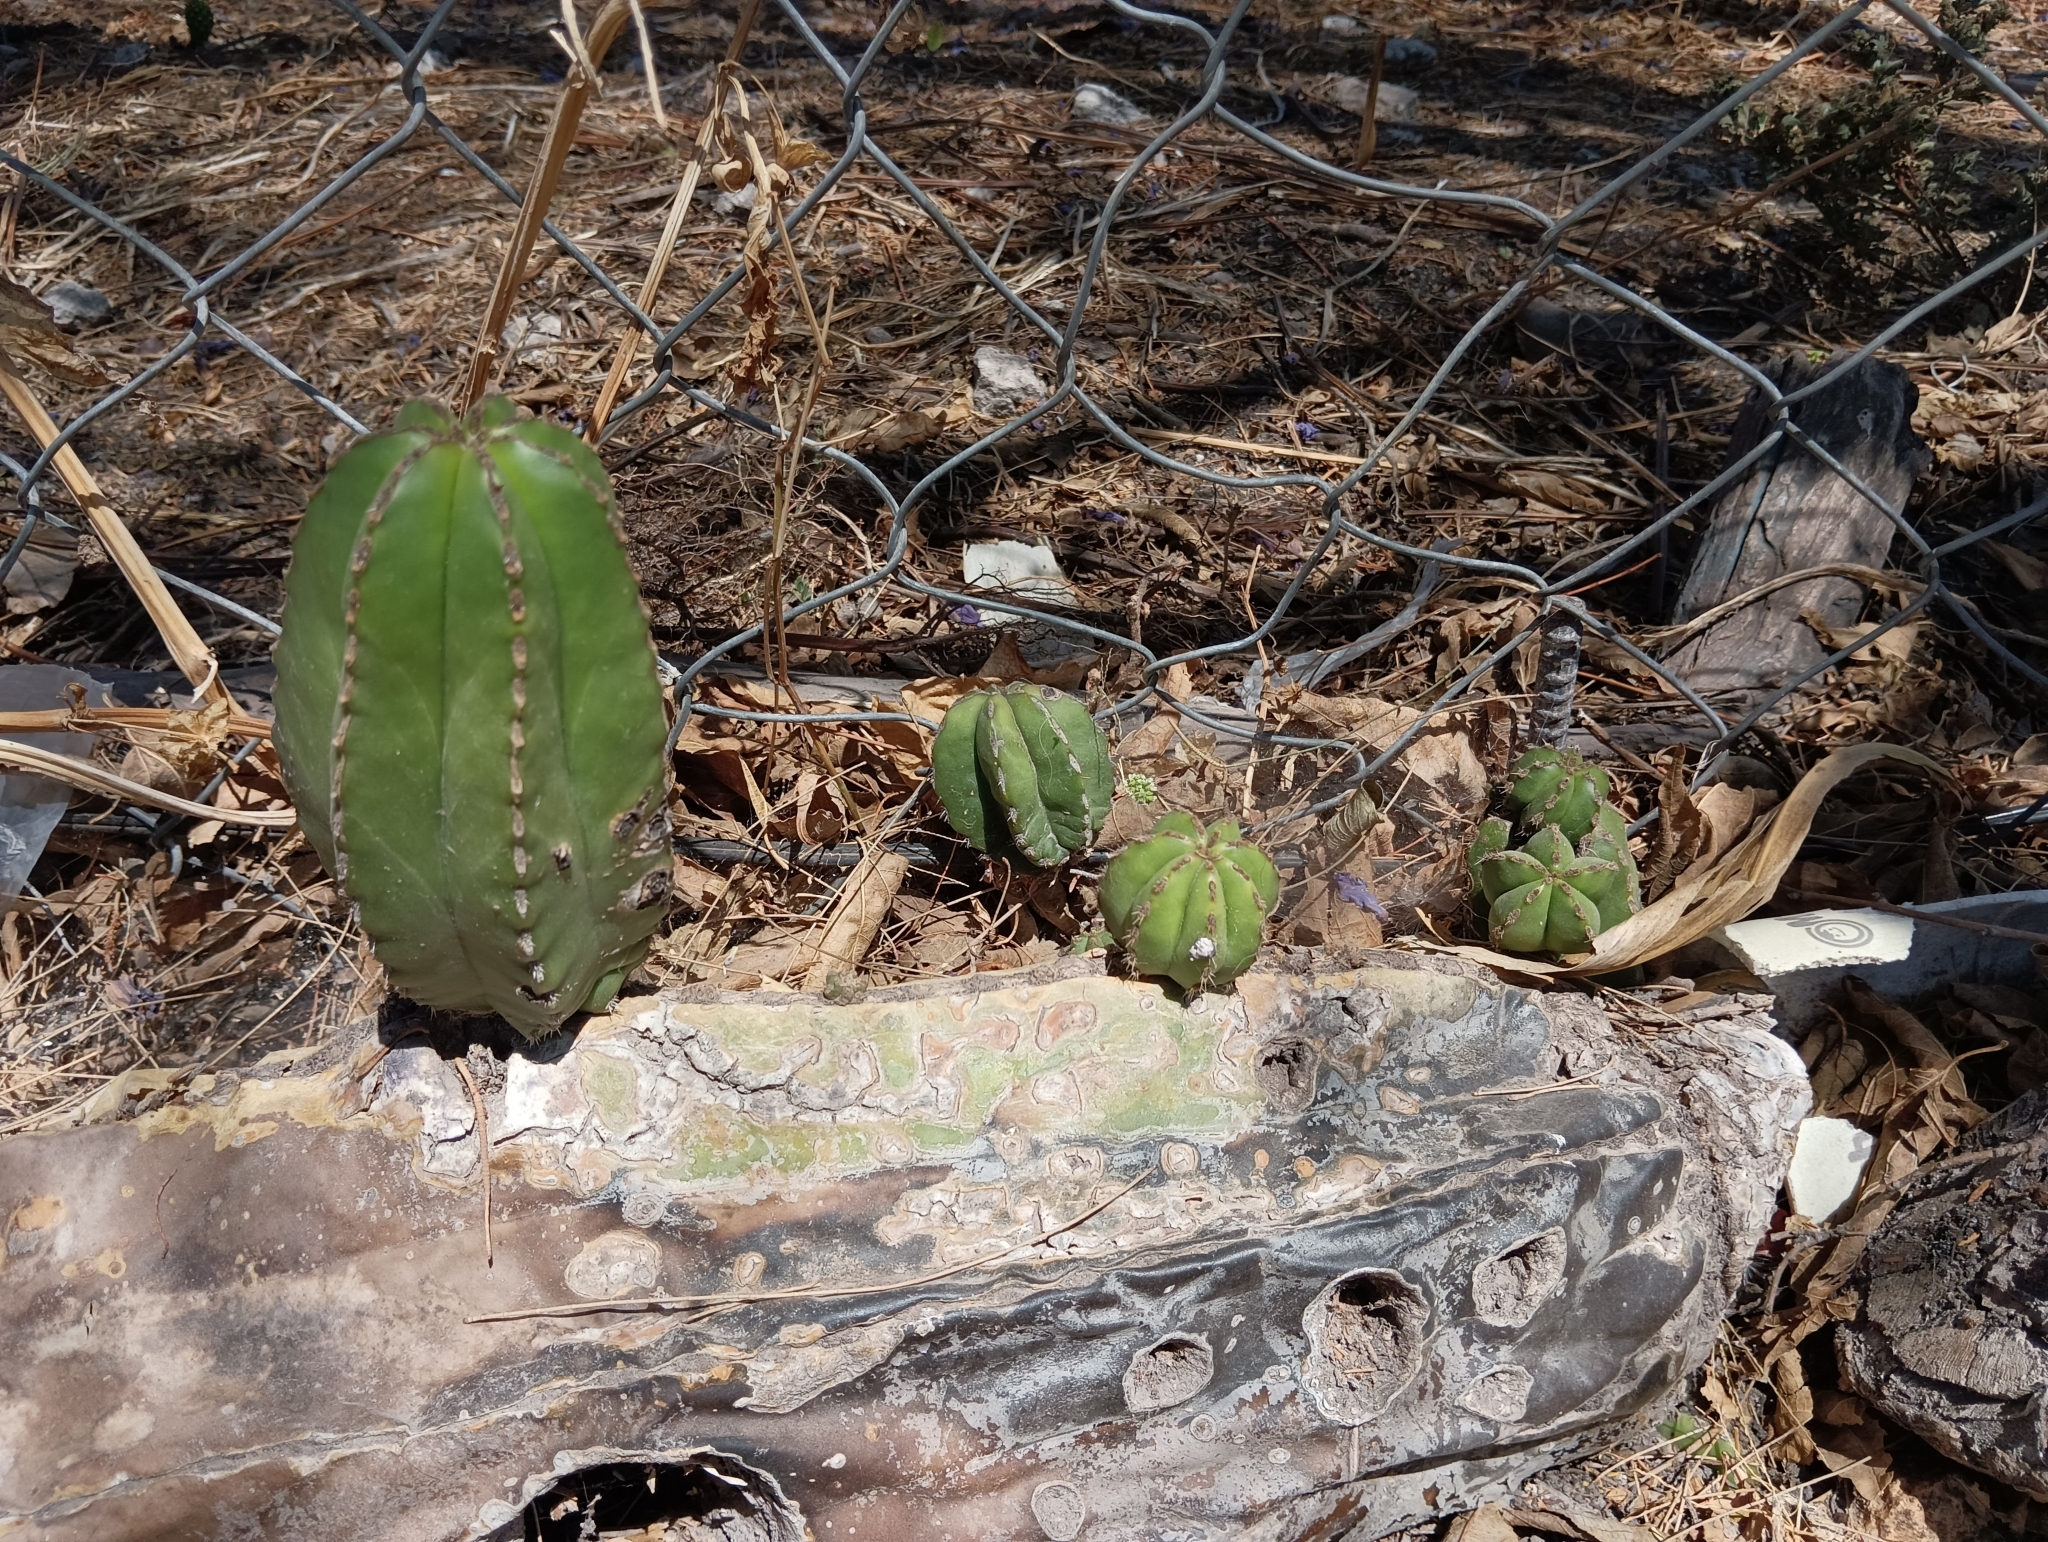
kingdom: Plantae
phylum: Tracheophyta
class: Magnoliopsida
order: Caryophyllales
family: Cactaceae
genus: Marginatocereus
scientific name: Marginatocereus marginatus
